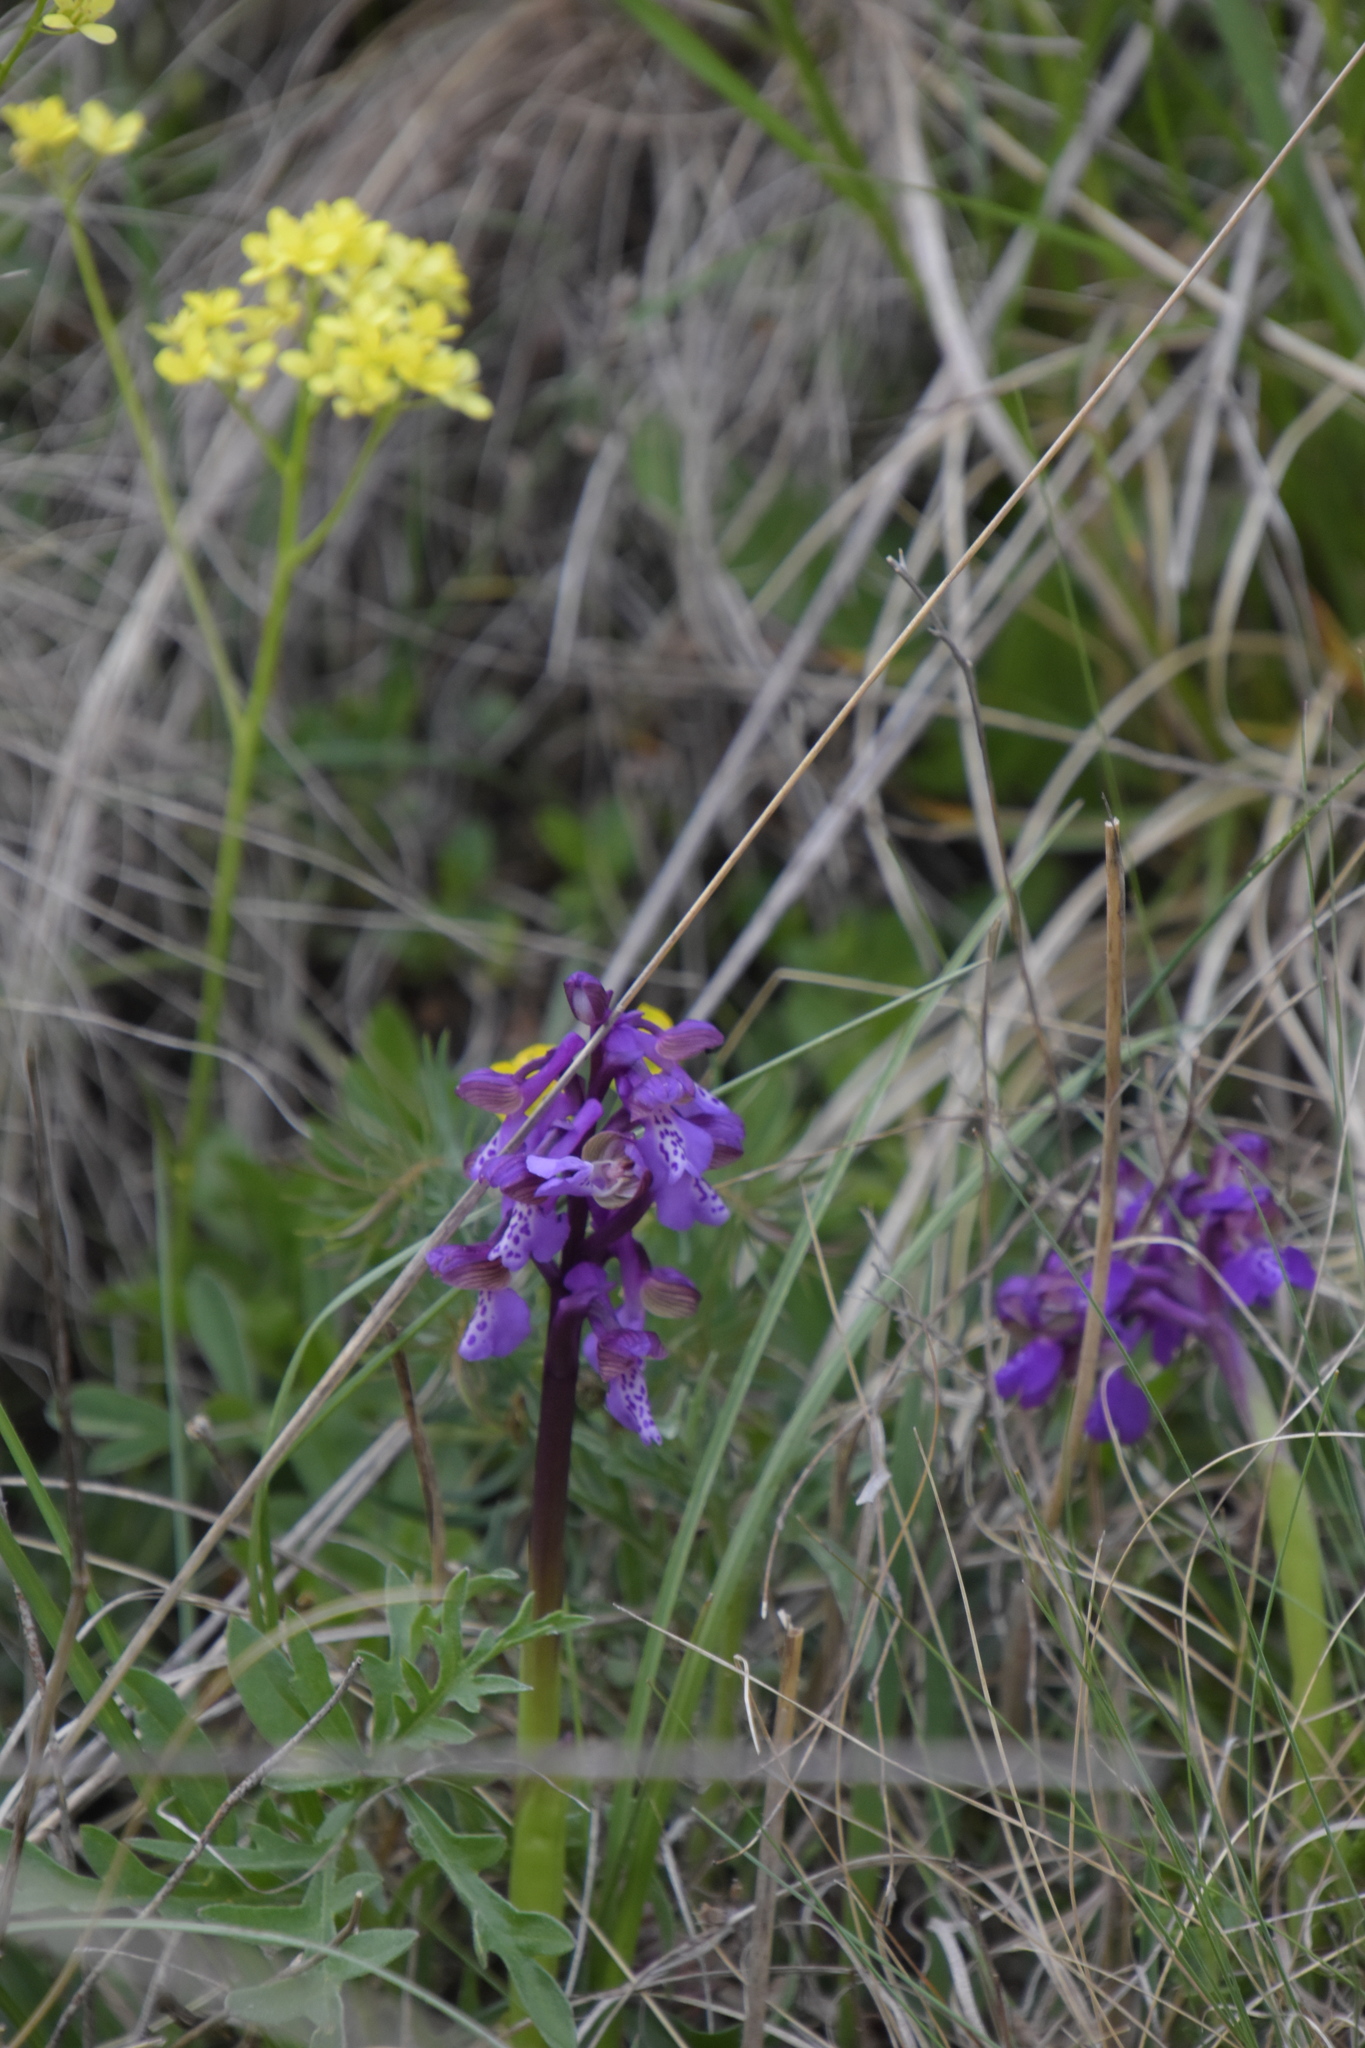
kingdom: Plantae
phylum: Tracheophyta
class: Liliopsida
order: Asparagales
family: Orchidaceae
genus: Anacamptis
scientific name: Anacamptis morio
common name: Green-winged orchid
